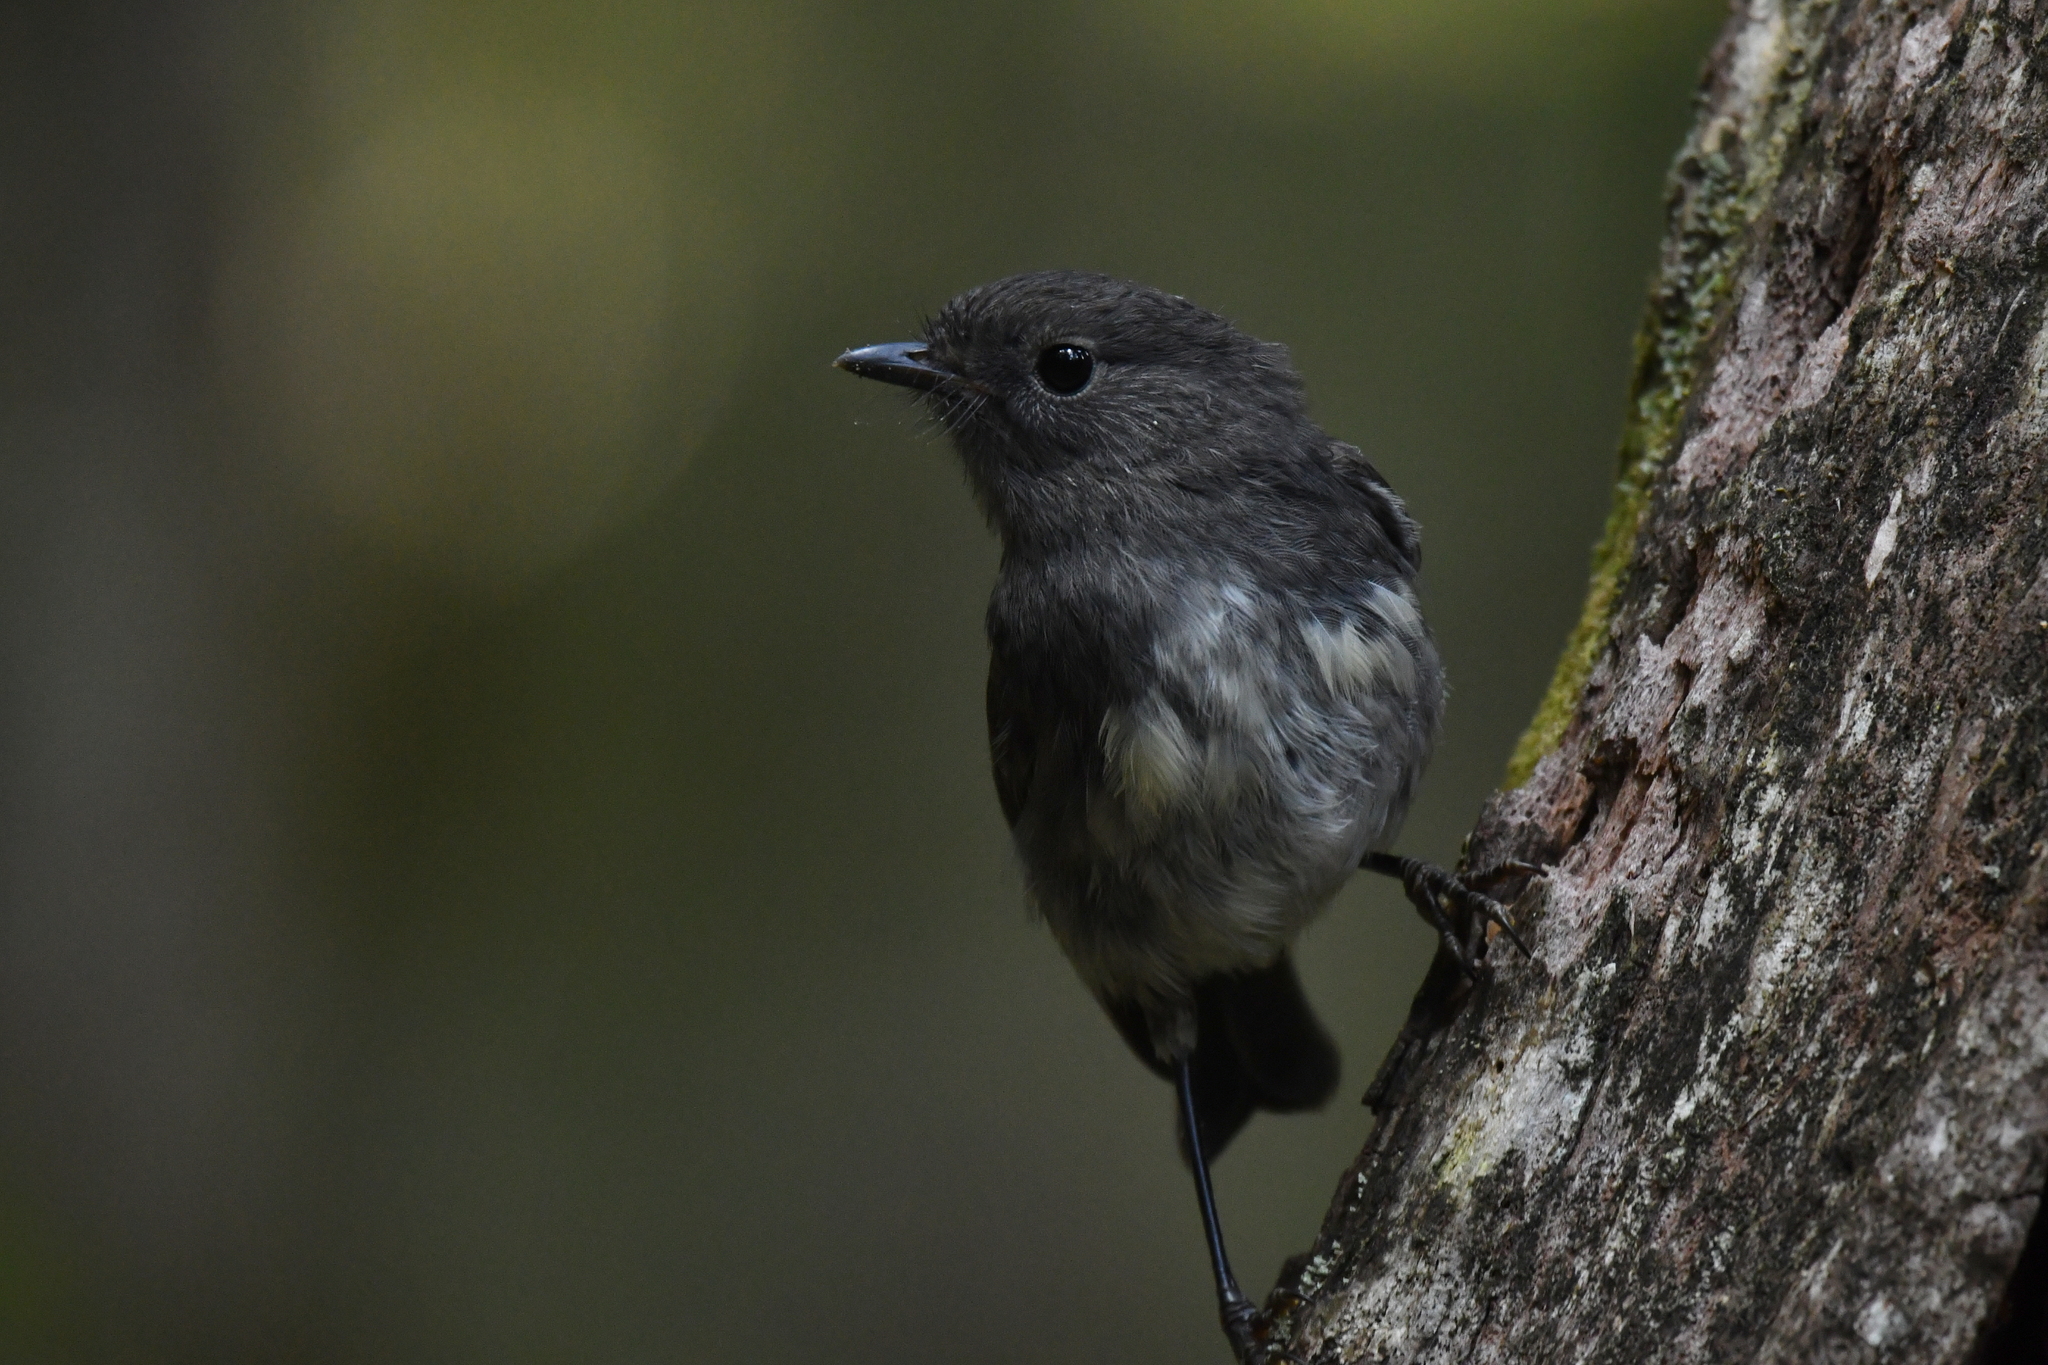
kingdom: Animalia
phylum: Chordata
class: Aves
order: Passeriformes
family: Petroicidae
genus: Petroica
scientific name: Petroica australis
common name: New zealand robin
